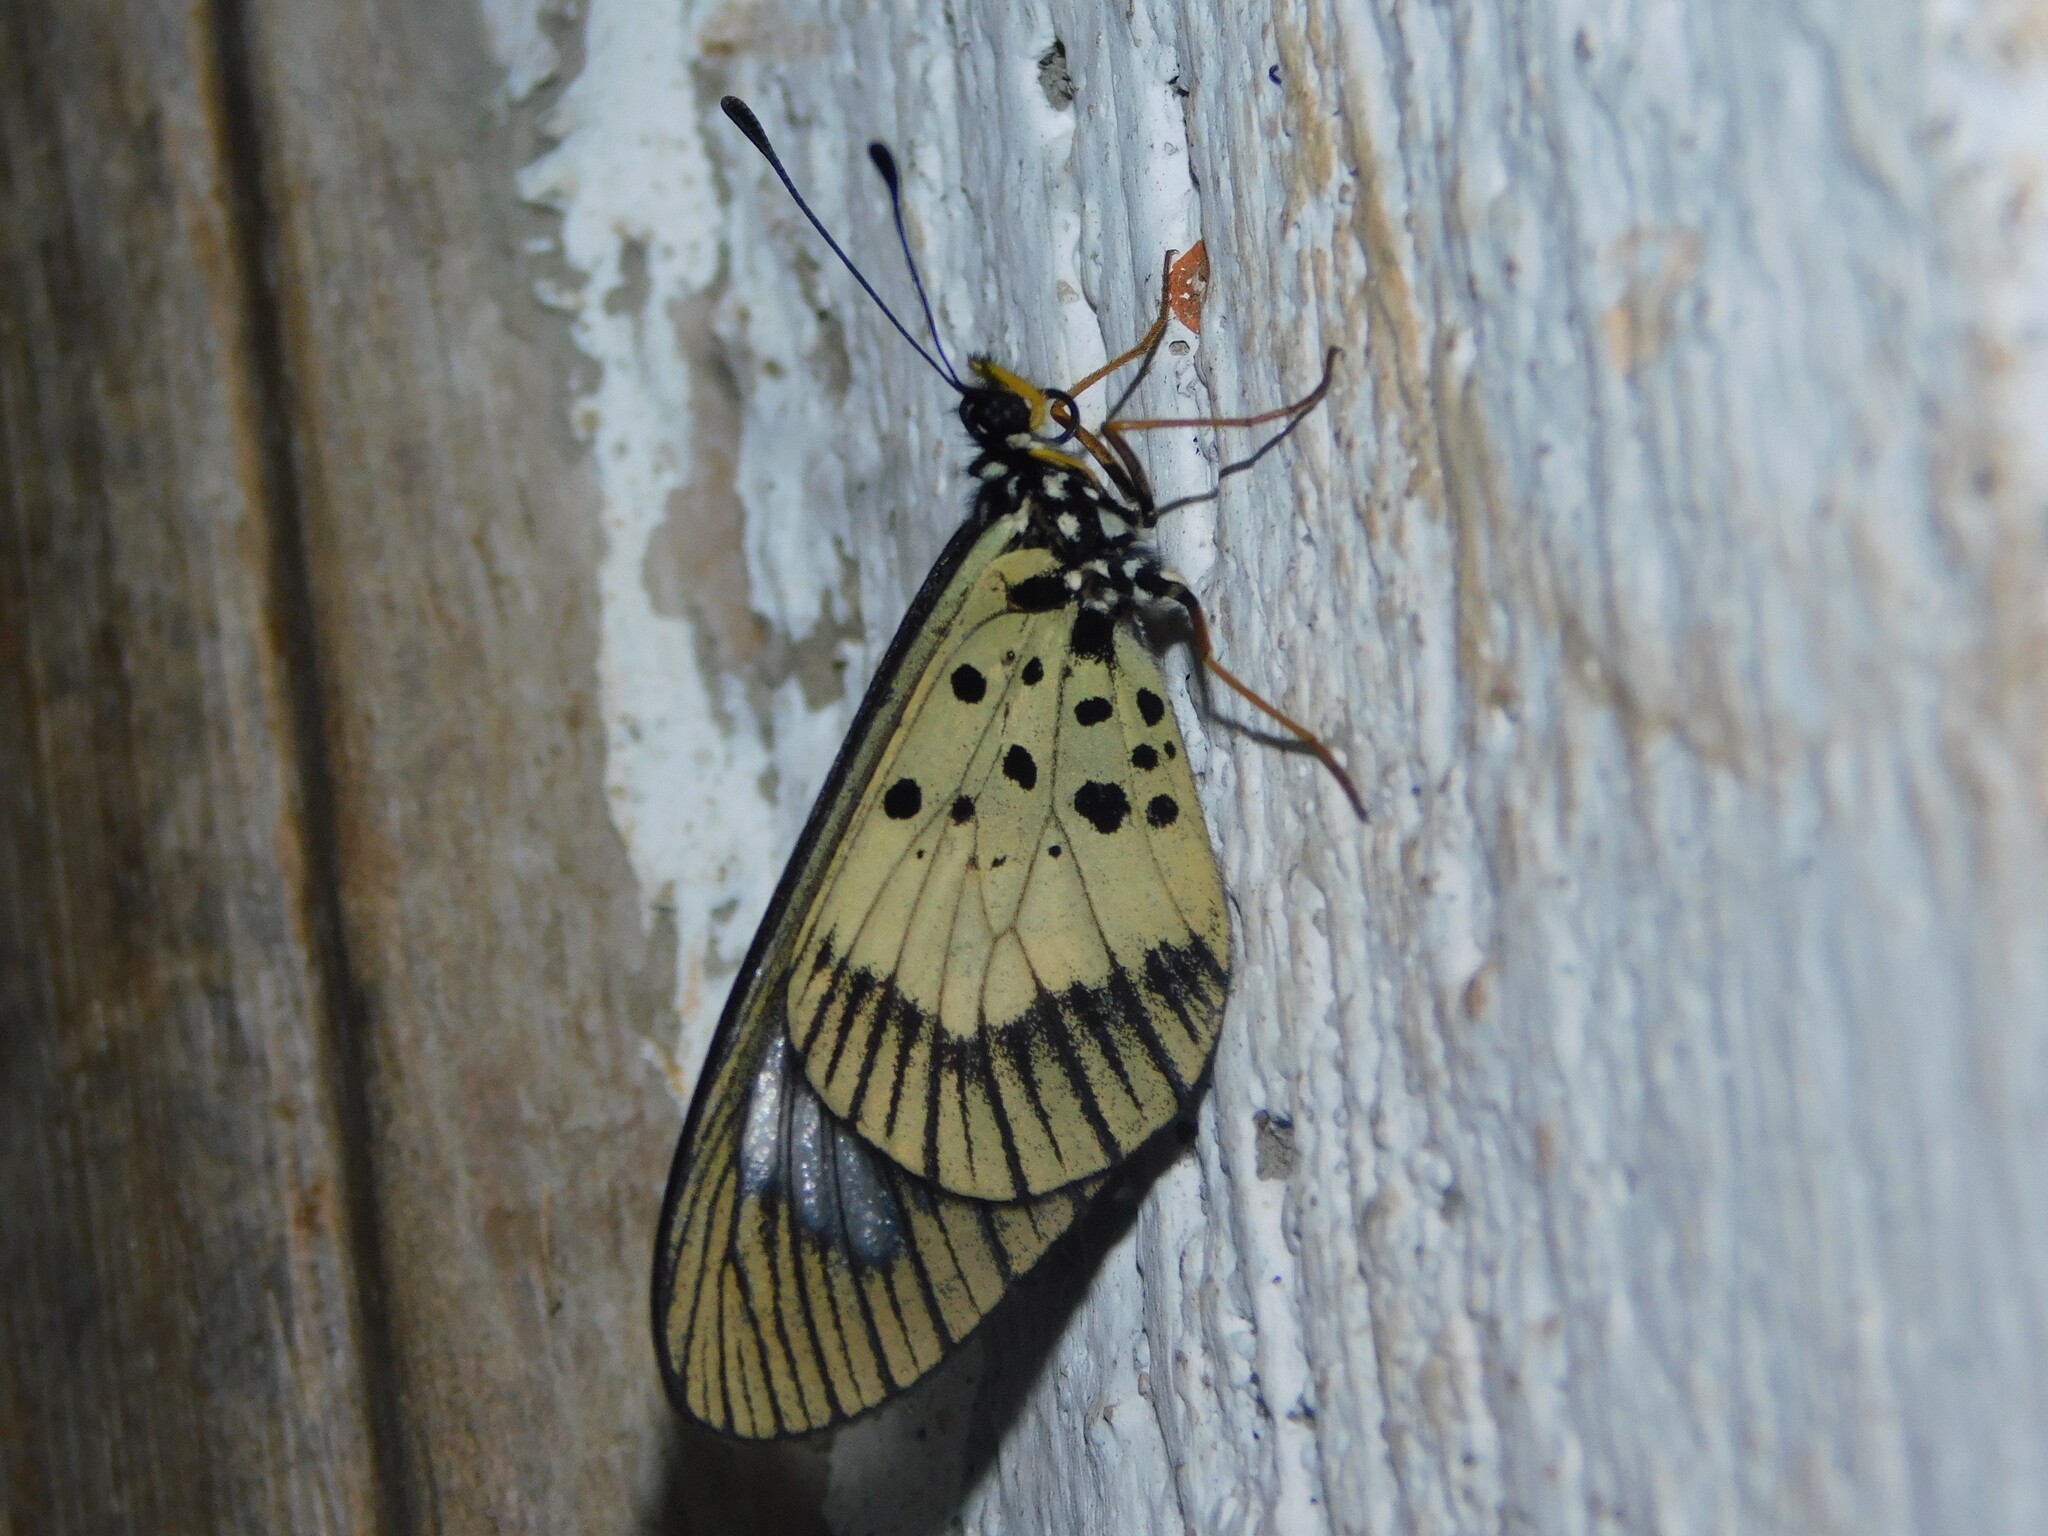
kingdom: Animalia
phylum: Arthropoda
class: Insecta
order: Lepidoptera
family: Nymphalidae
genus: Acraea
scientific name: Acraea
